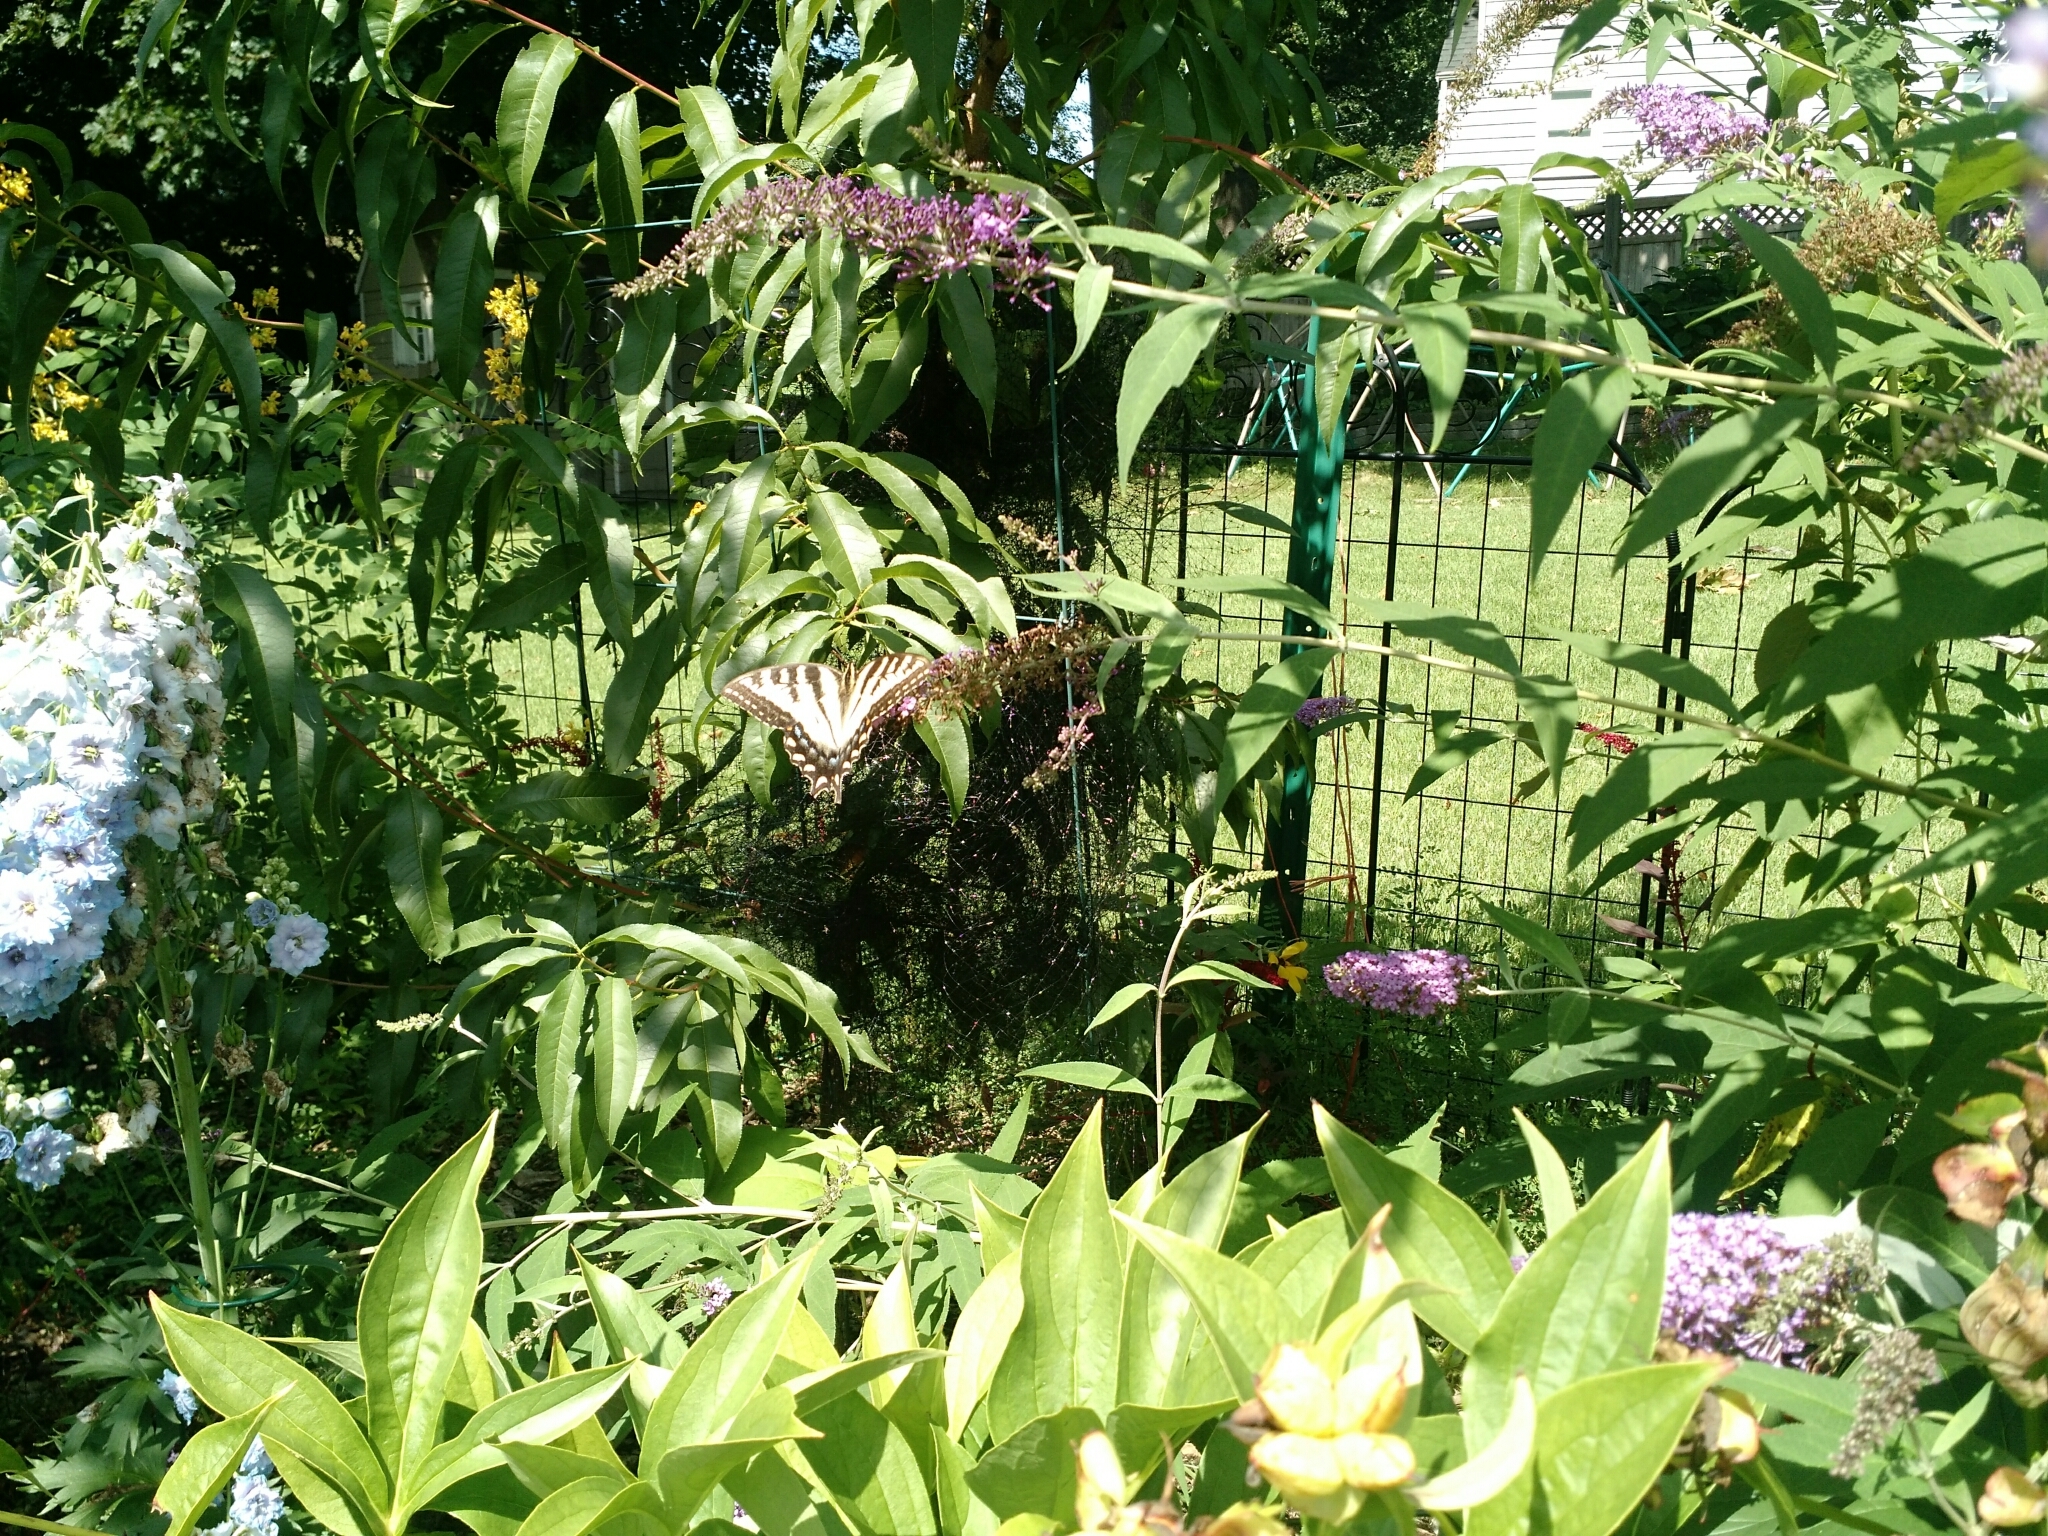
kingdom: Animalia
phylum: Arthropoda
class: Insecta
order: Lepidoptera
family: Papilionidae
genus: Papilio
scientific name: Papilio glaucus
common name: Tiger swallowtail
